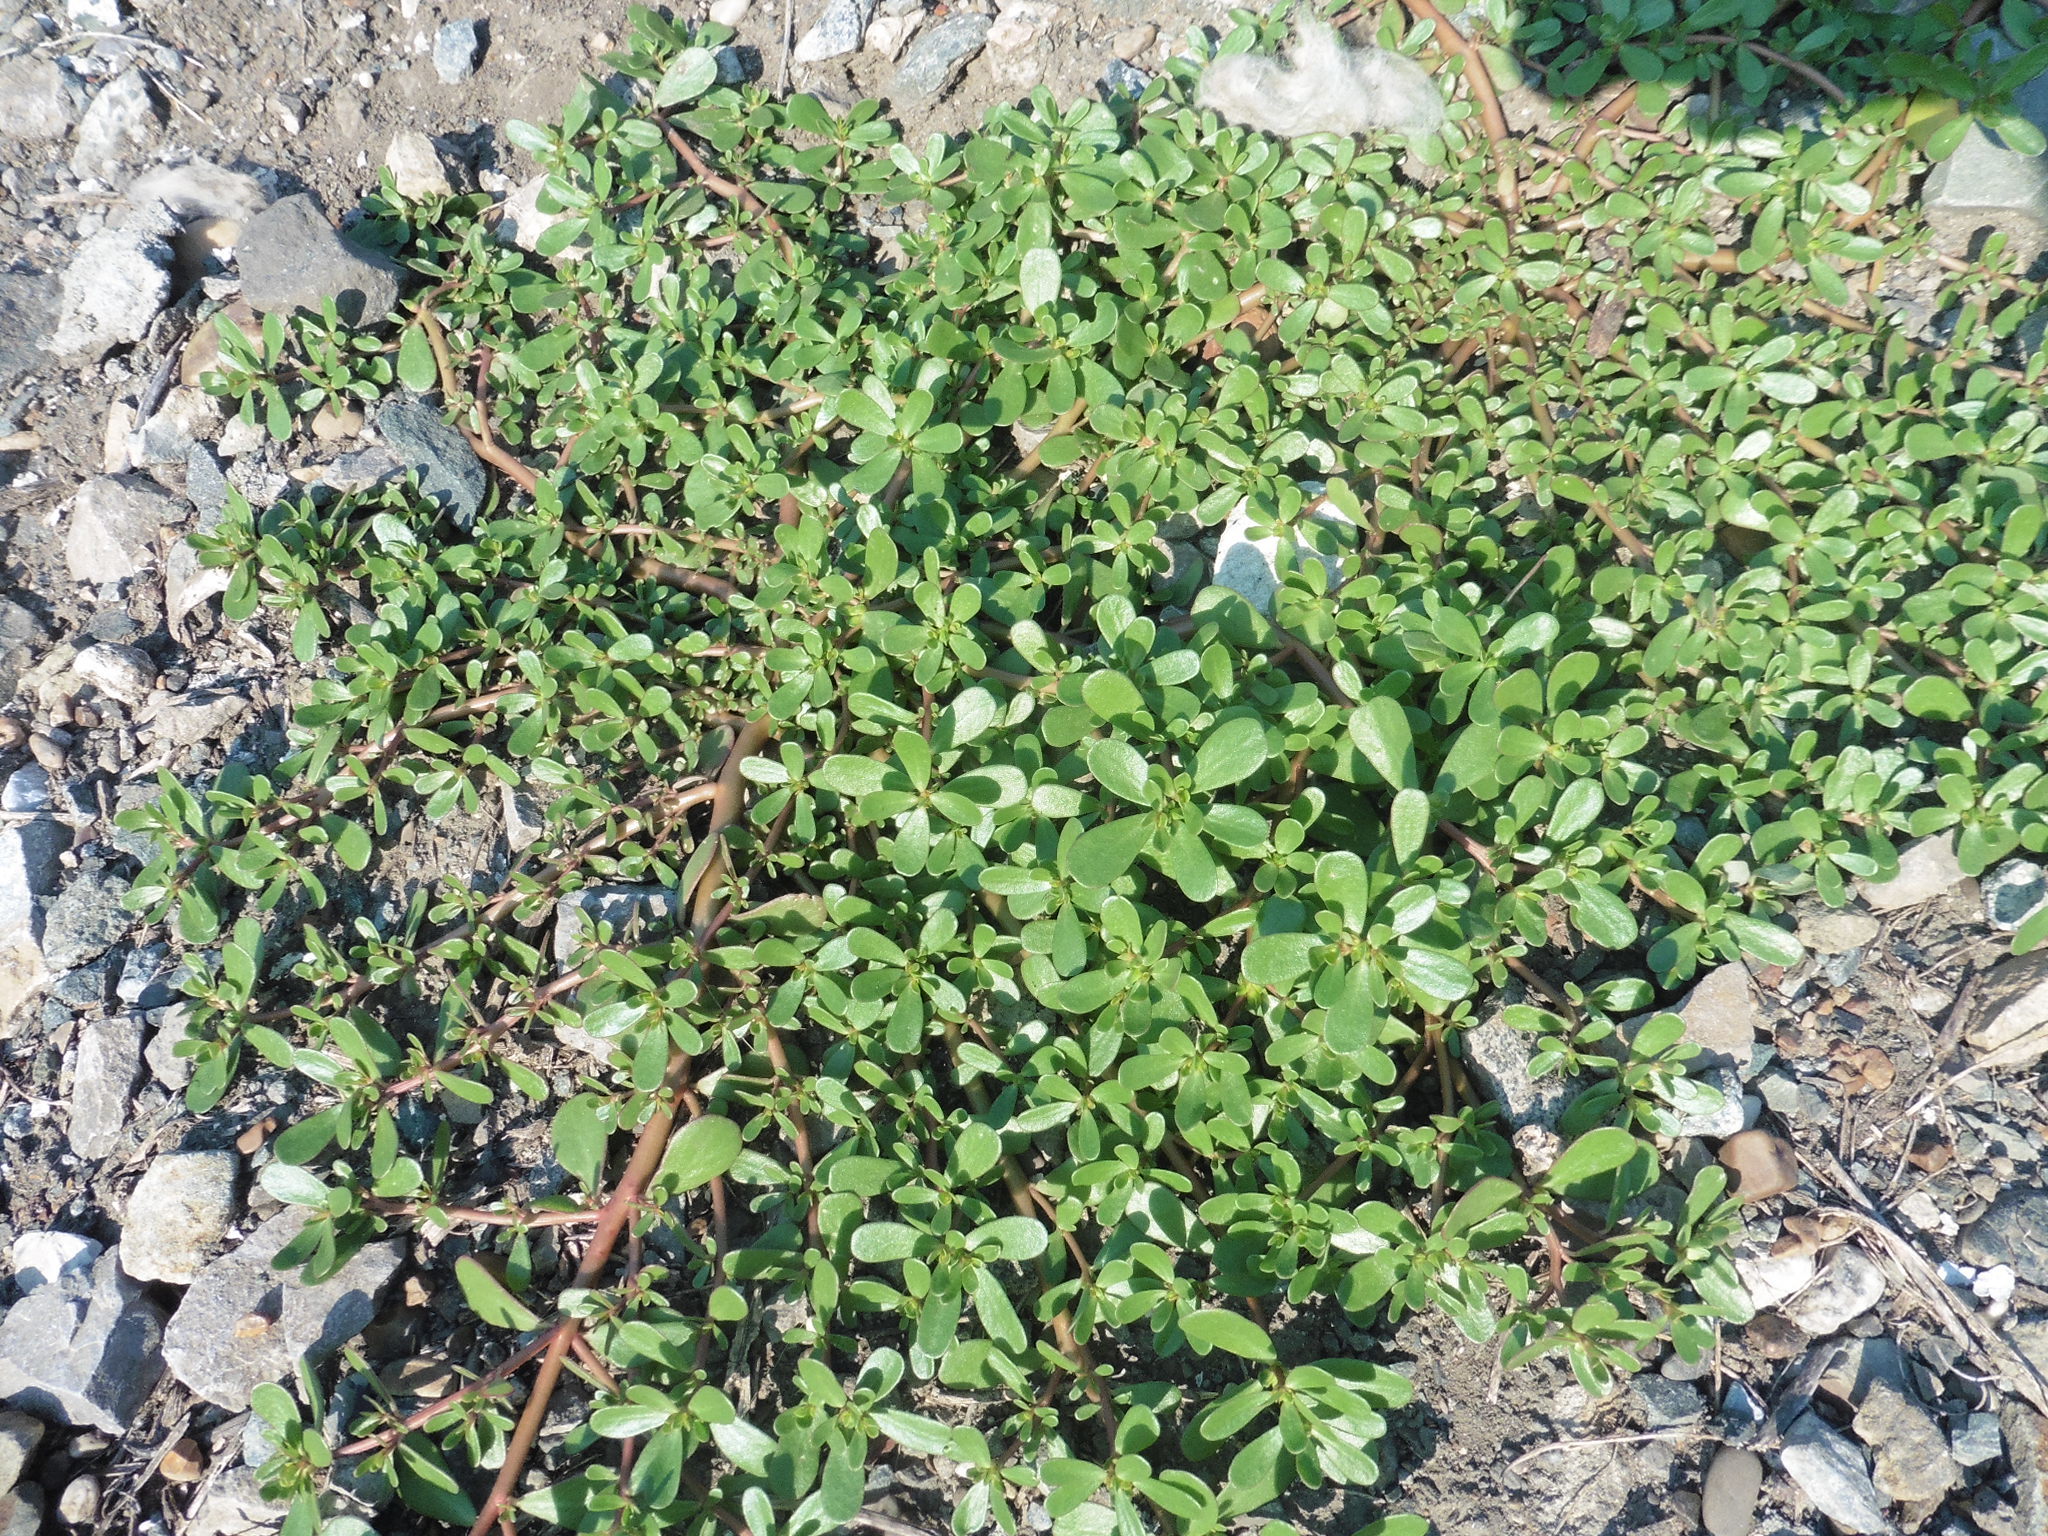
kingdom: Plantae
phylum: Tracheophyta
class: Magnoliopsida
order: Caryophyllales
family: Portulacaceae
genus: Portulaca
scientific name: Portulaca oleracea
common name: Common purslane
